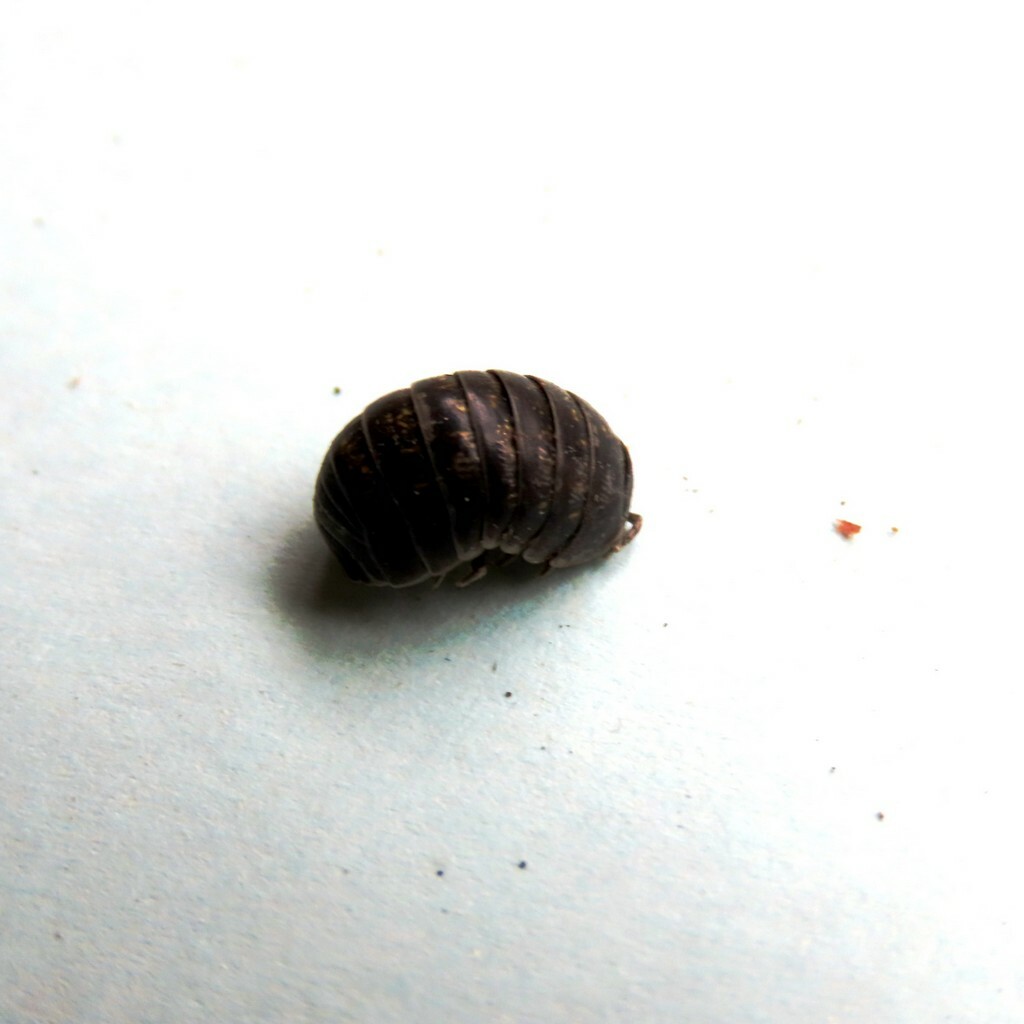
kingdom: Animalia
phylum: Arthropoda
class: Malacostraca
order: Isopoda
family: Armadillidiidae
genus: Armadillidium
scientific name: Armadillidium vulgare
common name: Common pill woodlouse
